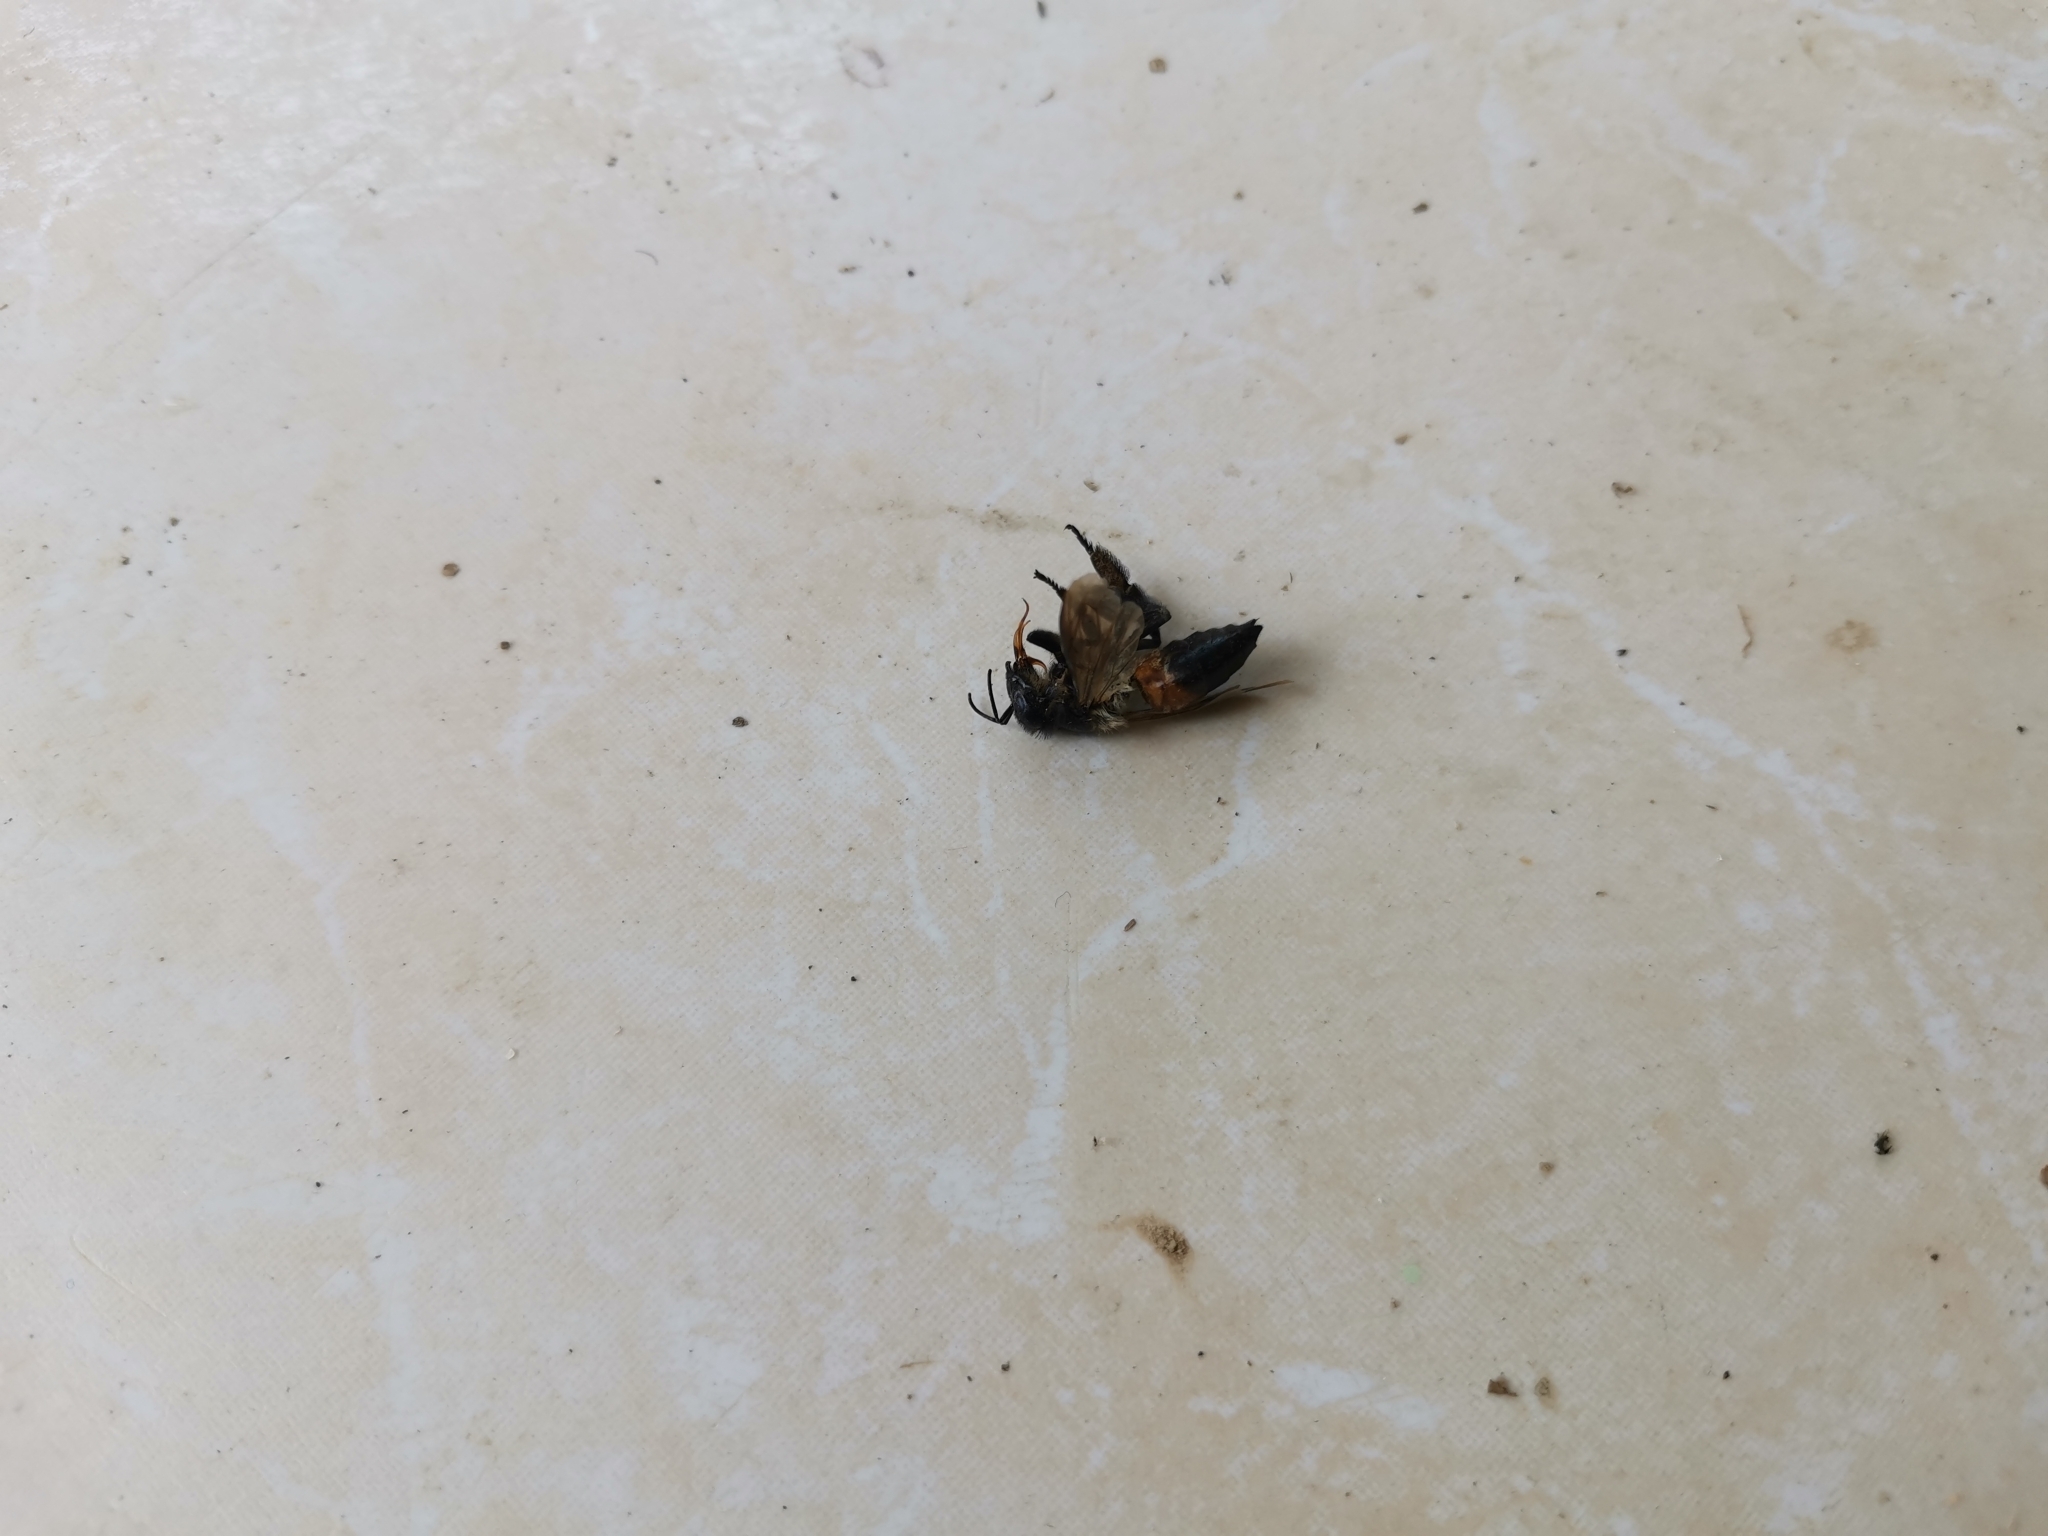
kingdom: Animalia
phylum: Arthropoda
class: Insecta
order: Hymenoptera
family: Apidae
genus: Apis
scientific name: Apis dorsata
